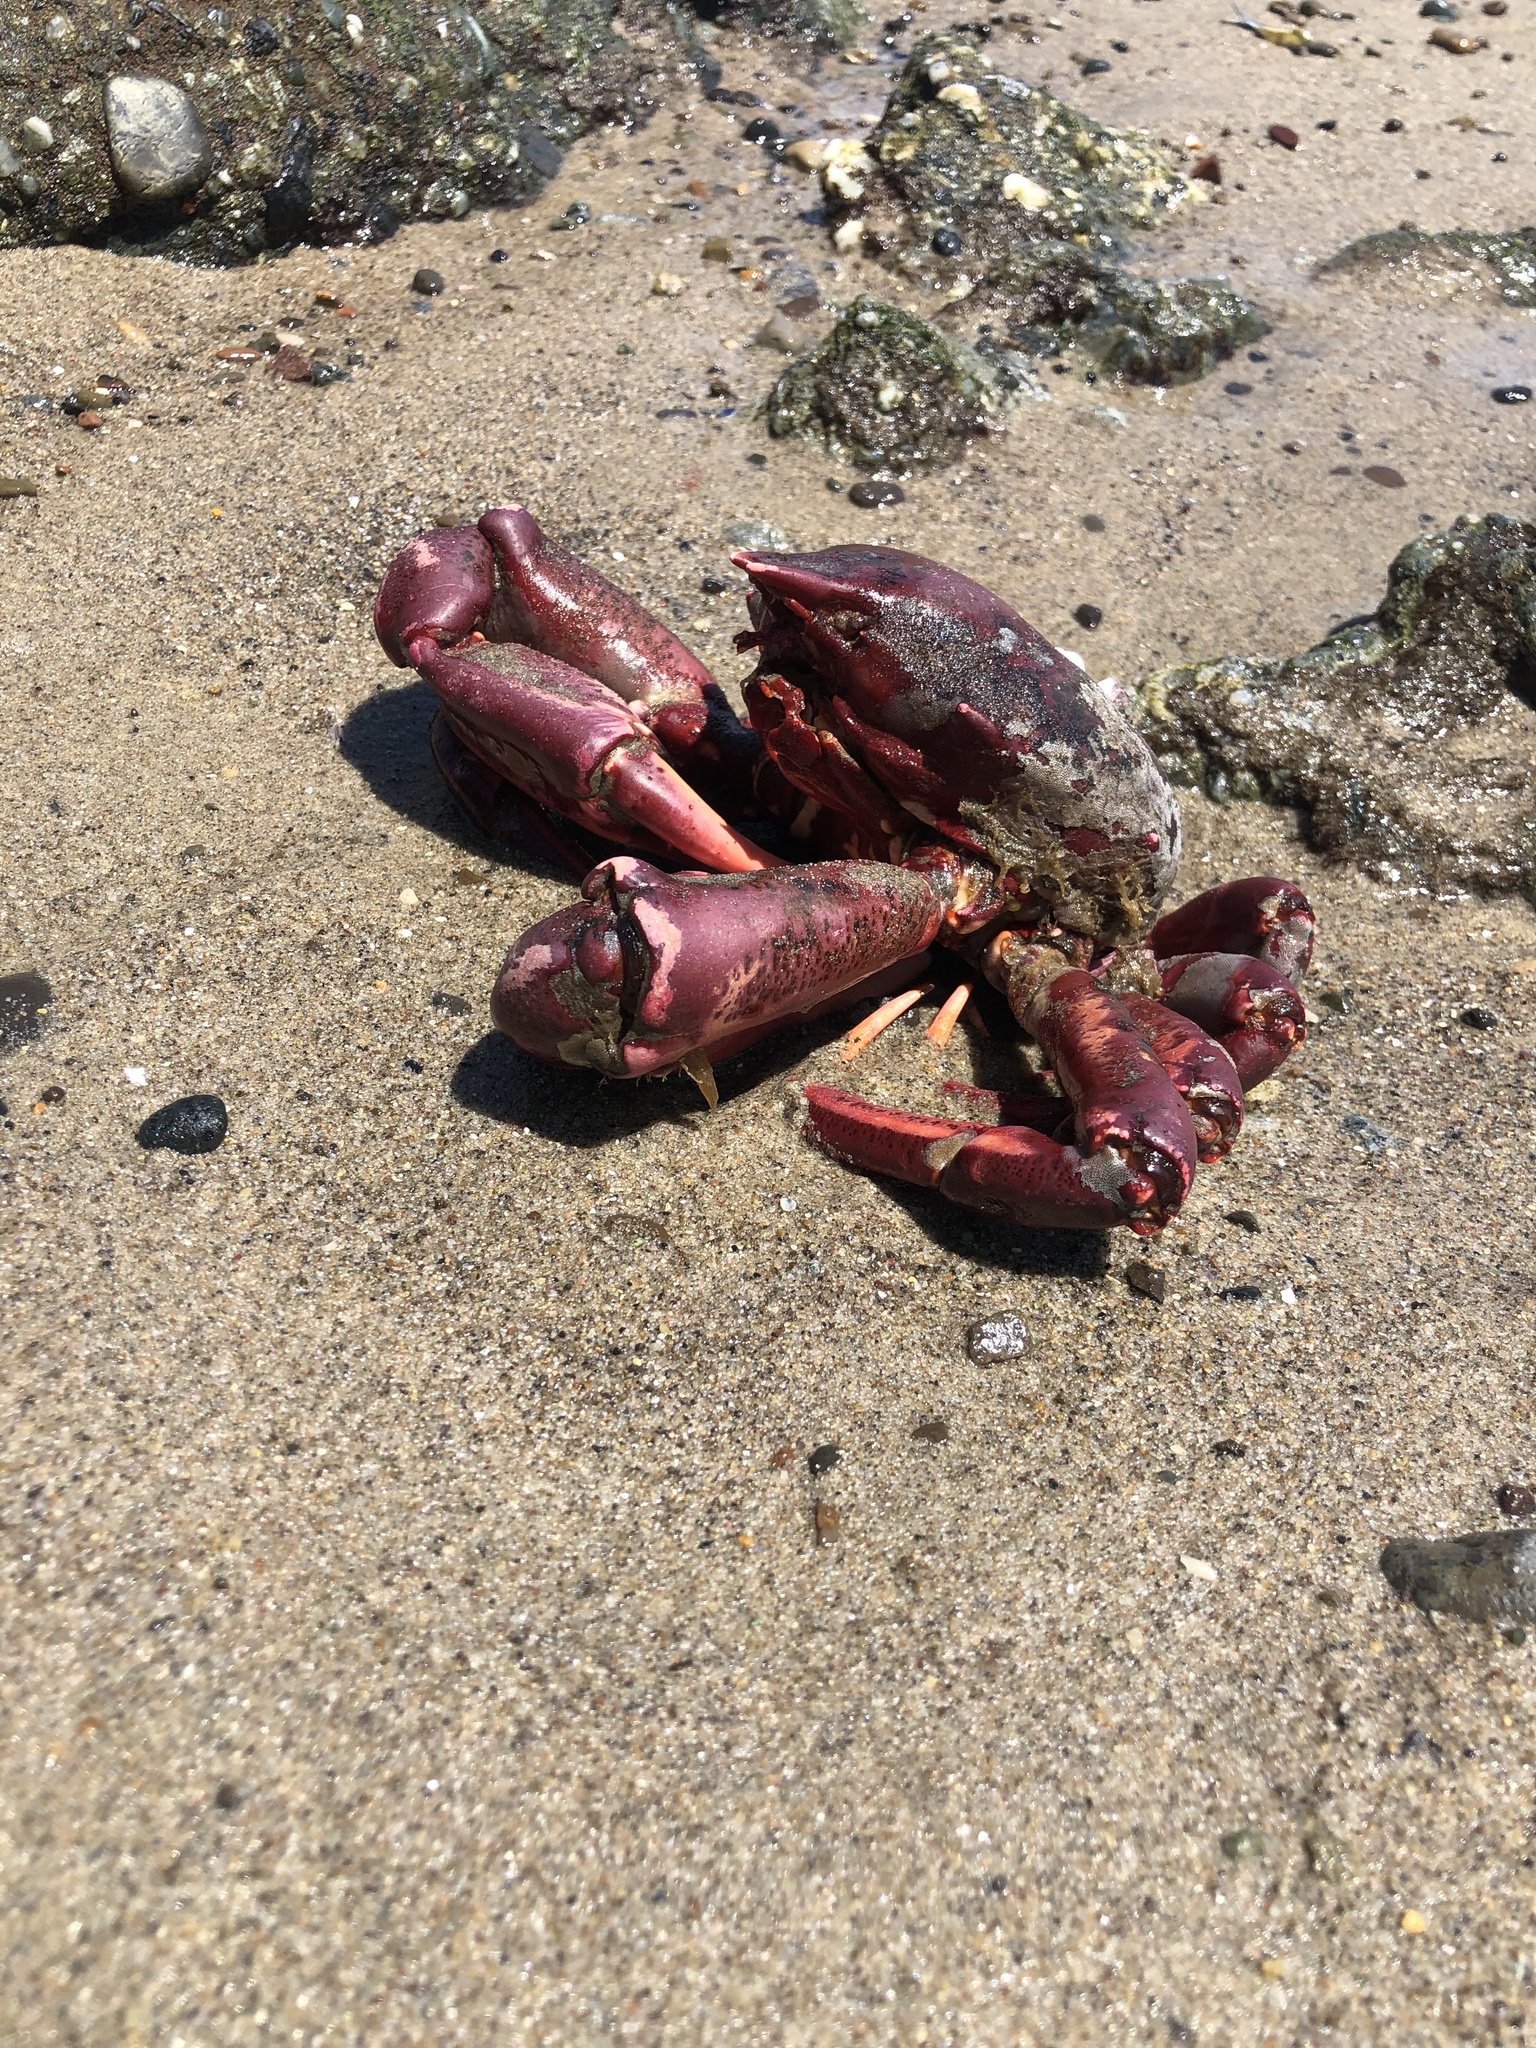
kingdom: Animalia
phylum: Arthropoda
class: Malacostraca
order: Decapoda
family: Epialtidae
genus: Taliepus
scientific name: Taliepus nuttallii
